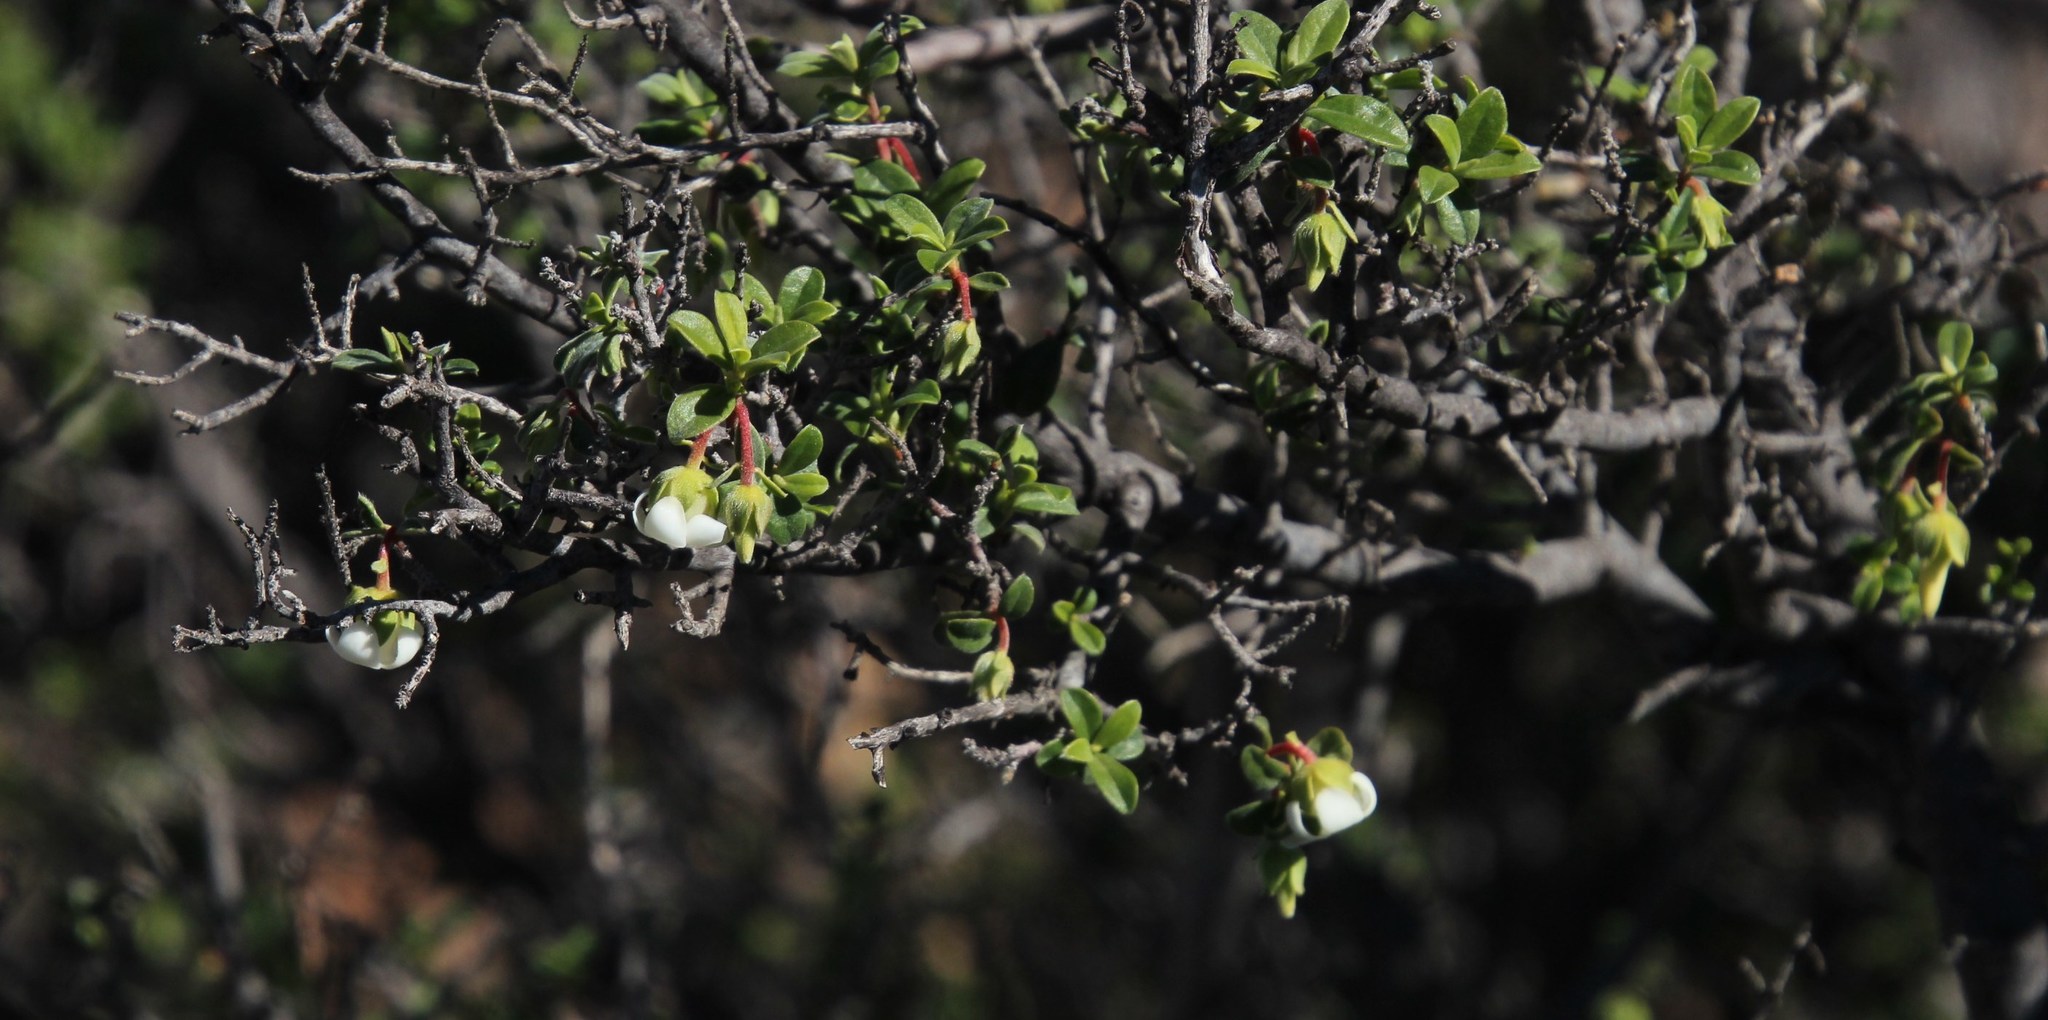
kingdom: Plantae
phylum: Tracheophyta
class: Magnoliopsida
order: Ericales
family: Ebenaceae
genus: Diospyros
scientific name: Diospyros ramulosa
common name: Namaqua fire-sticks
